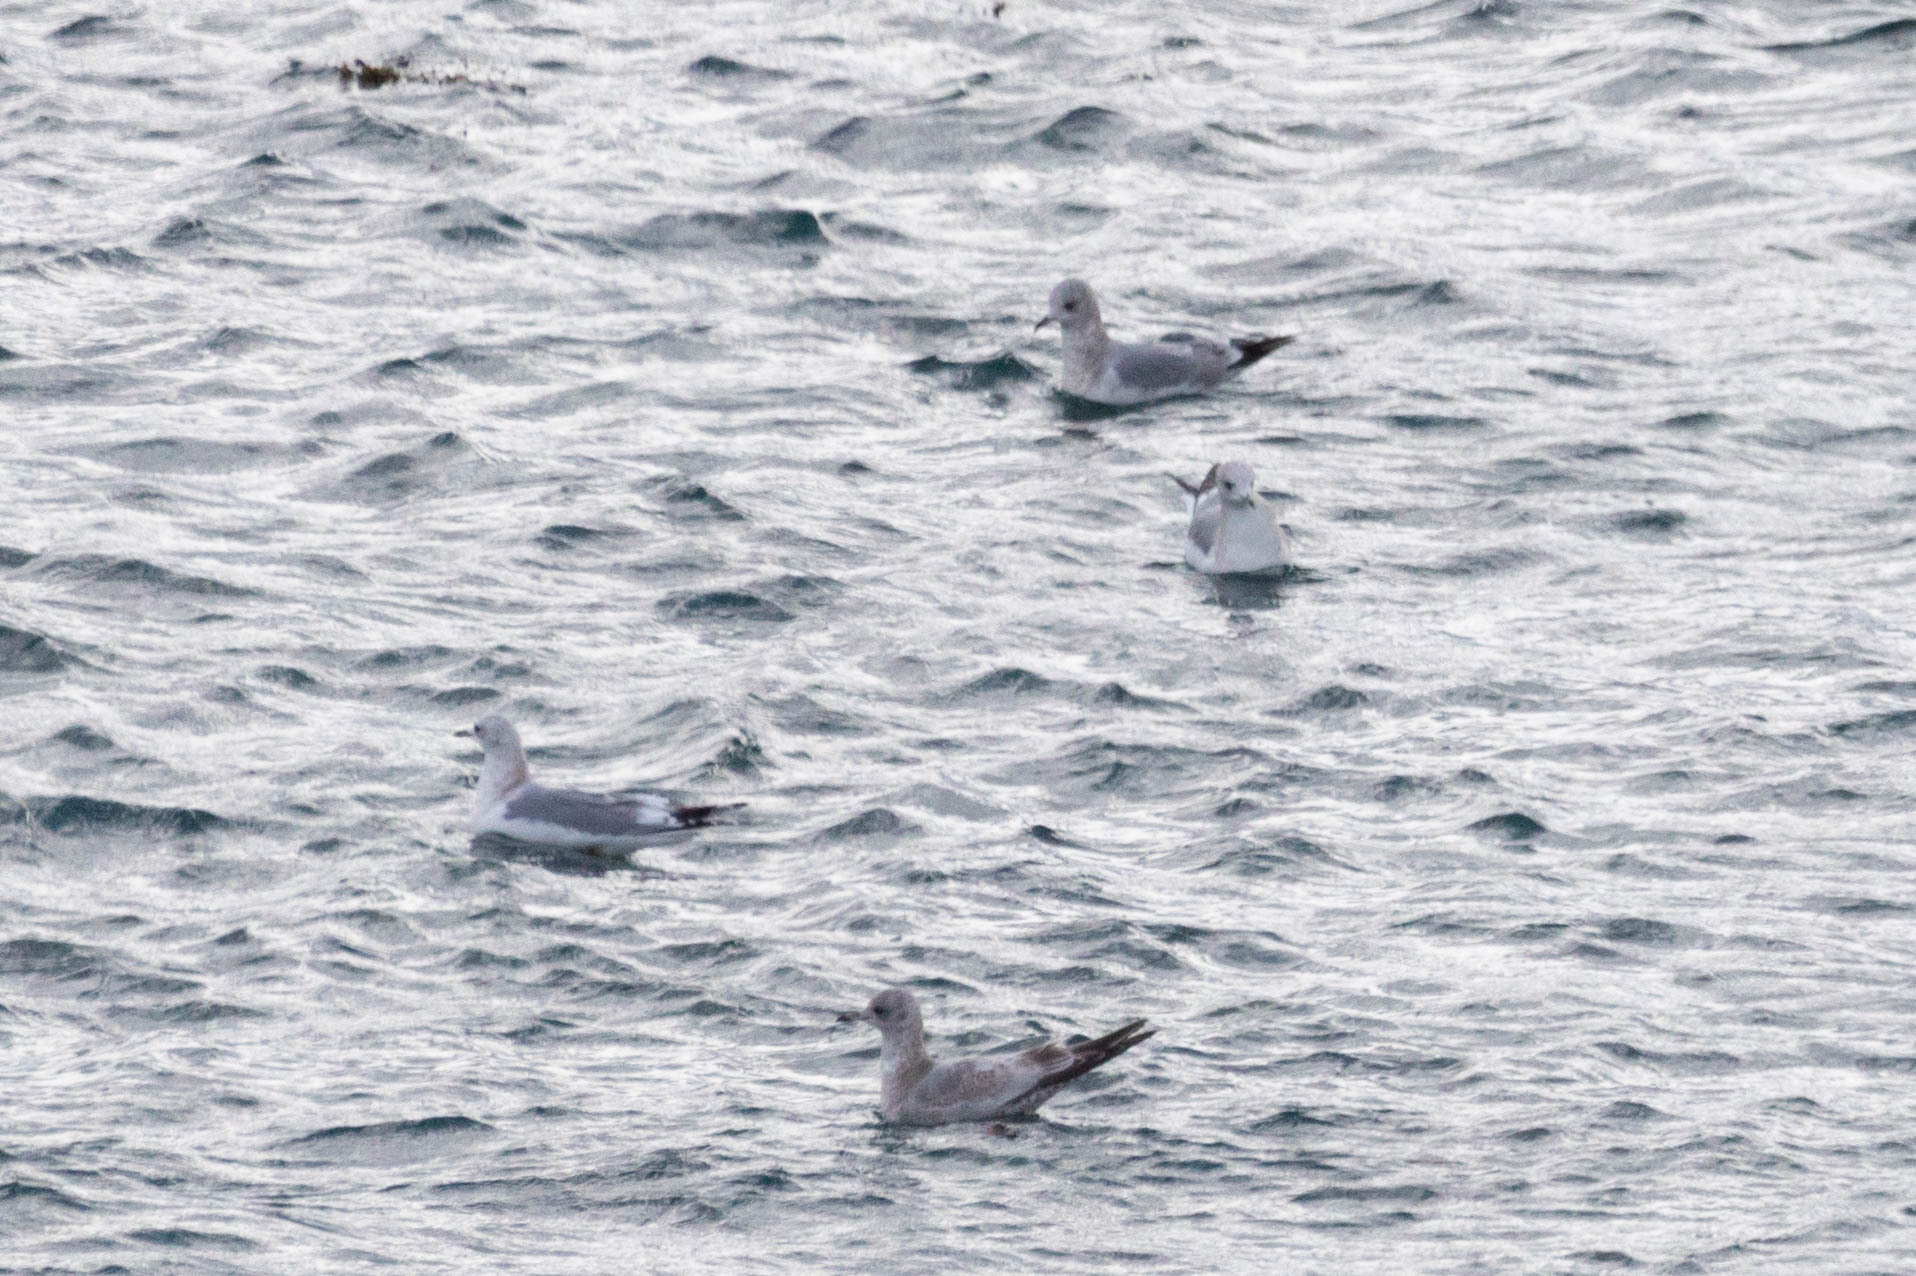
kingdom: Animalia
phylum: Chordata
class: Aves
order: Charadriiformes
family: Laridae
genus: Larus
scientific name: Larus brachyrhynchus
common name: Short-billed gull
